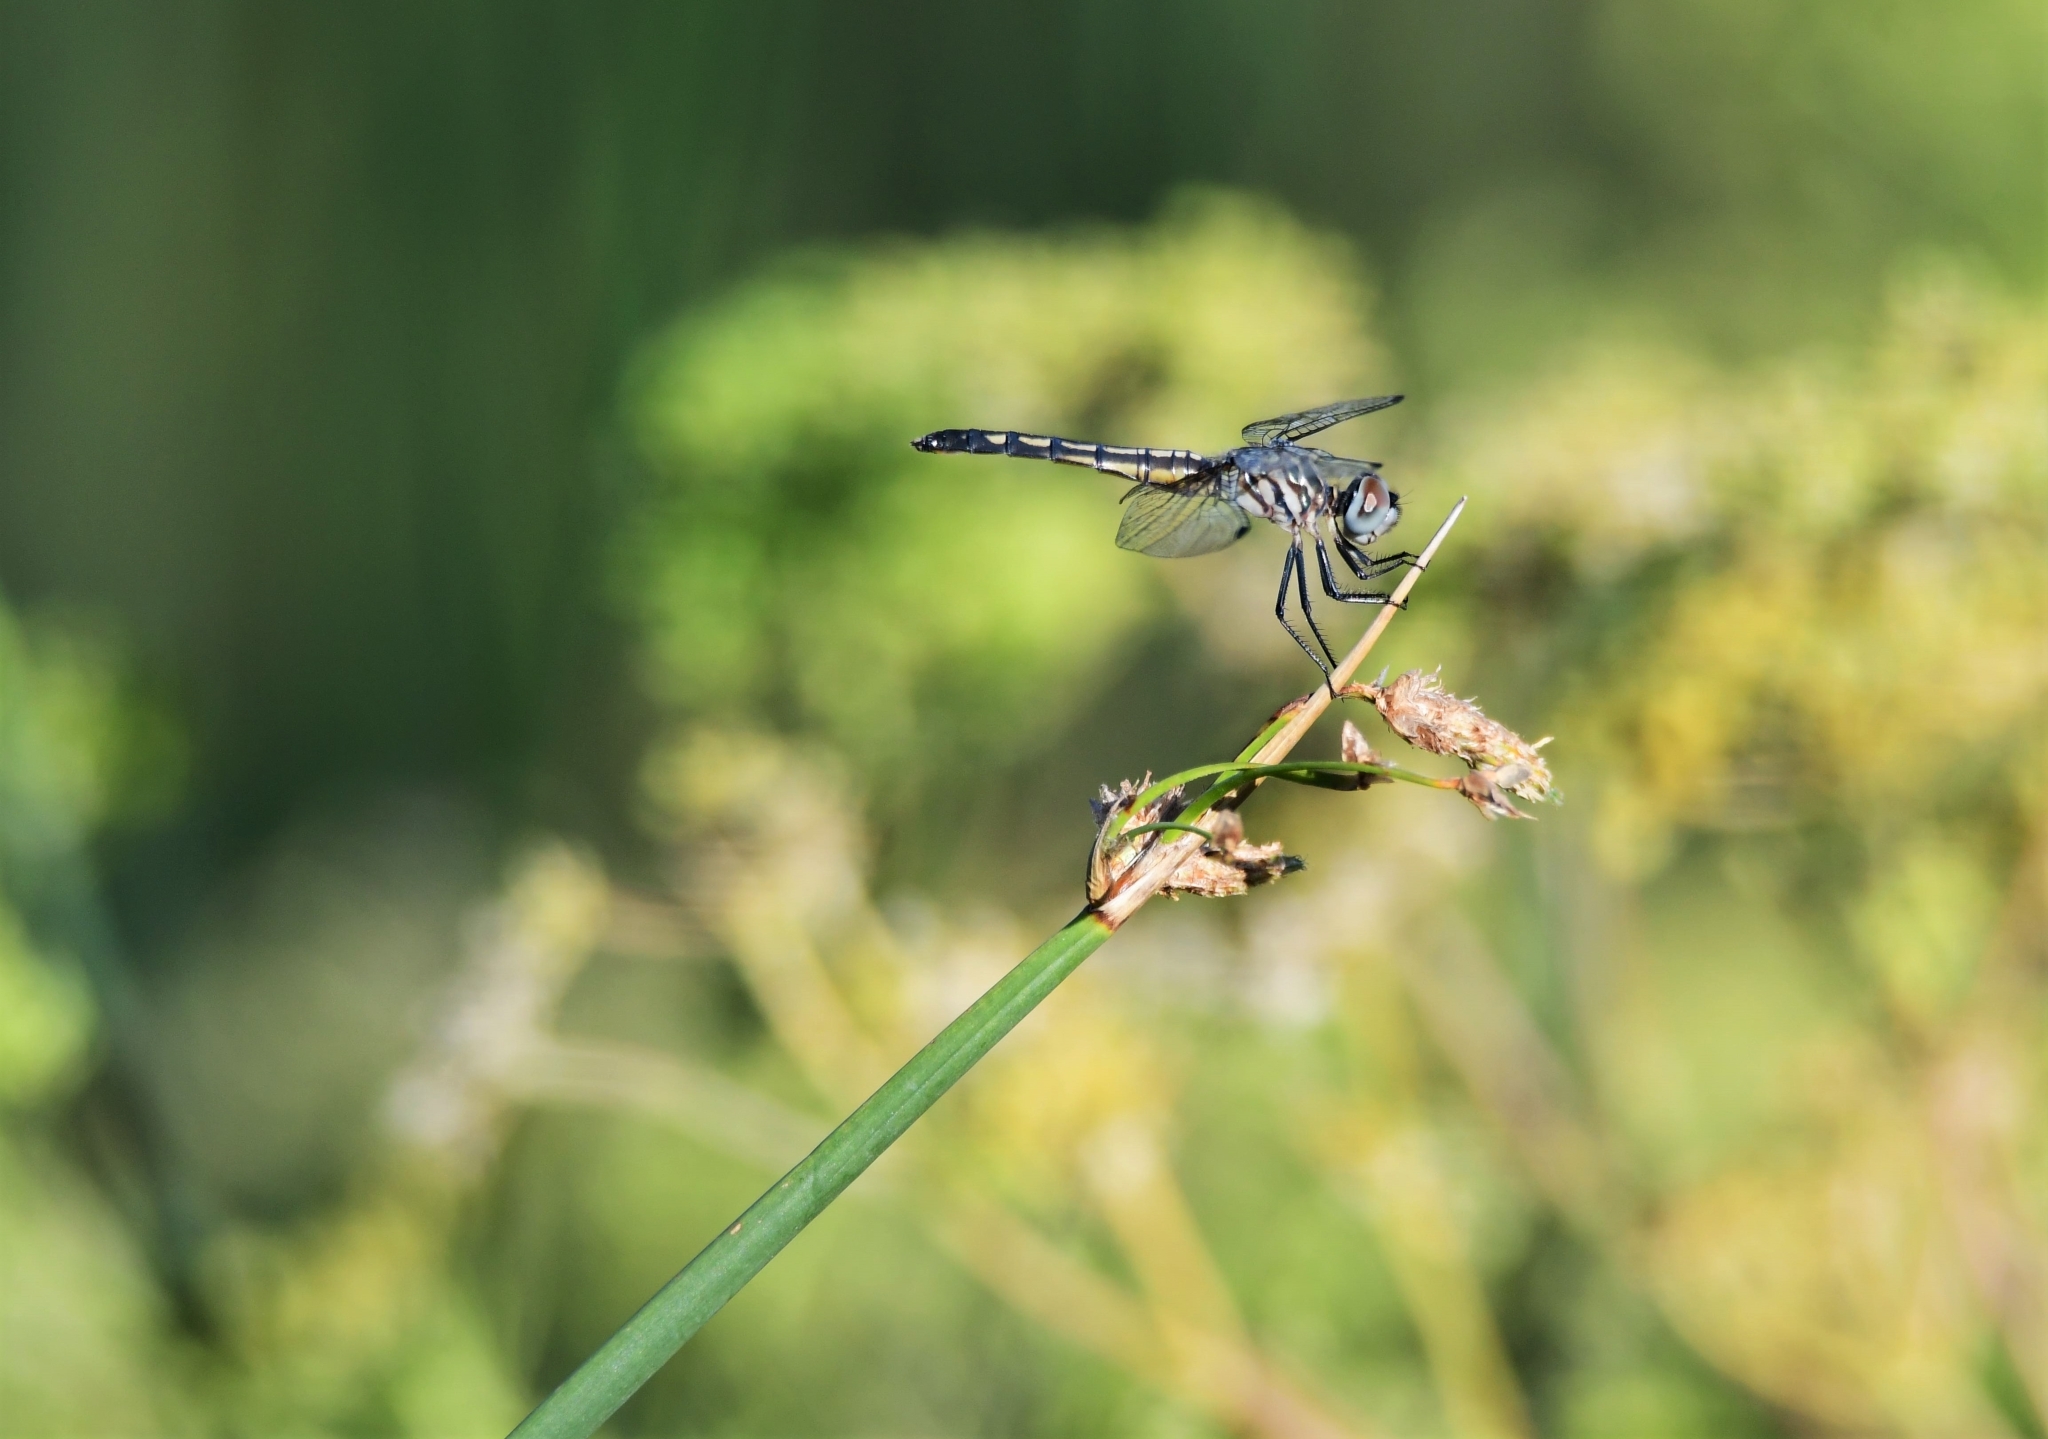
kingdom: Animalia
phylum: Arthropoda
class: Insecta
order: Odonata
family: Libellulidae
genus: Pachydiplax
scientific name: Pachydiplax longipennis
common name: Blue dasher
